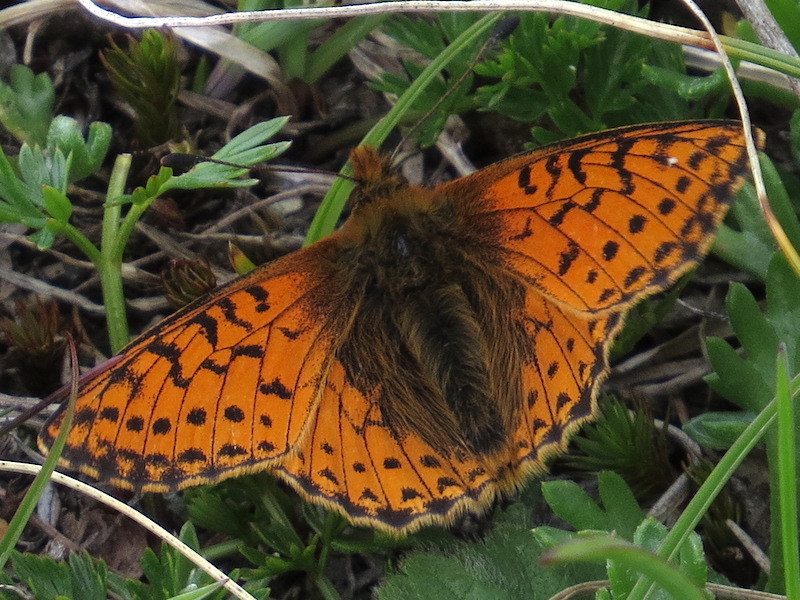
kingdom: Animalia
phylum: Arthropoda
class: Insecta
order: Lepidoptera
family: Nymphalidae
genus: Boloria
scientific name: Boloria pales
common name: Shepherd's fritillary
